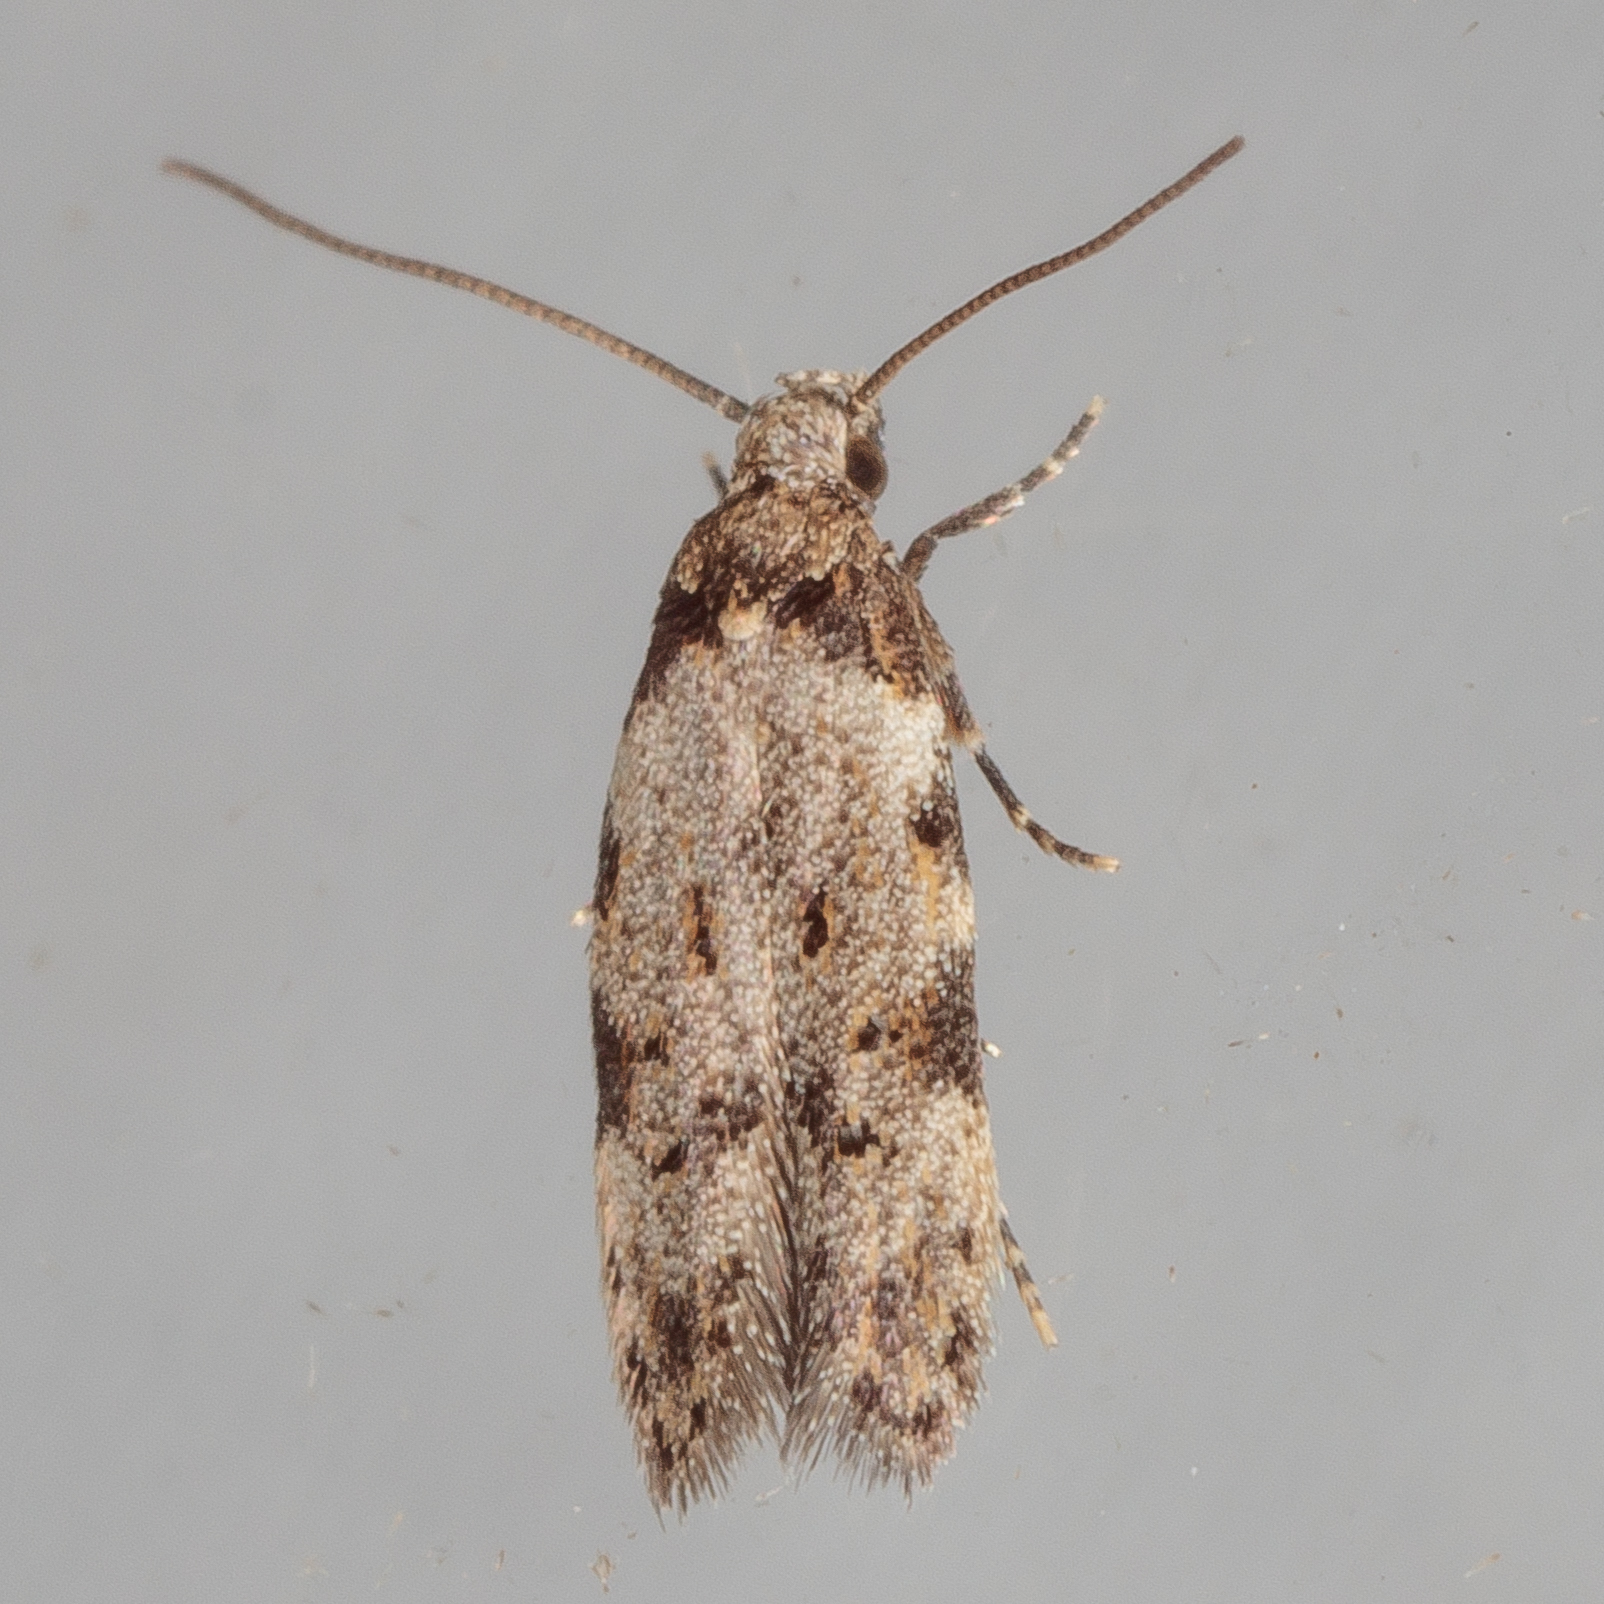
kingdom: Animalia
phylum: Arthropoda
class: Insecta
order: Lepidoptera
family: Autostichidae
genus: Taygete
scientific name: Taygete attributella
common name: Triangle-marked twirler moth
